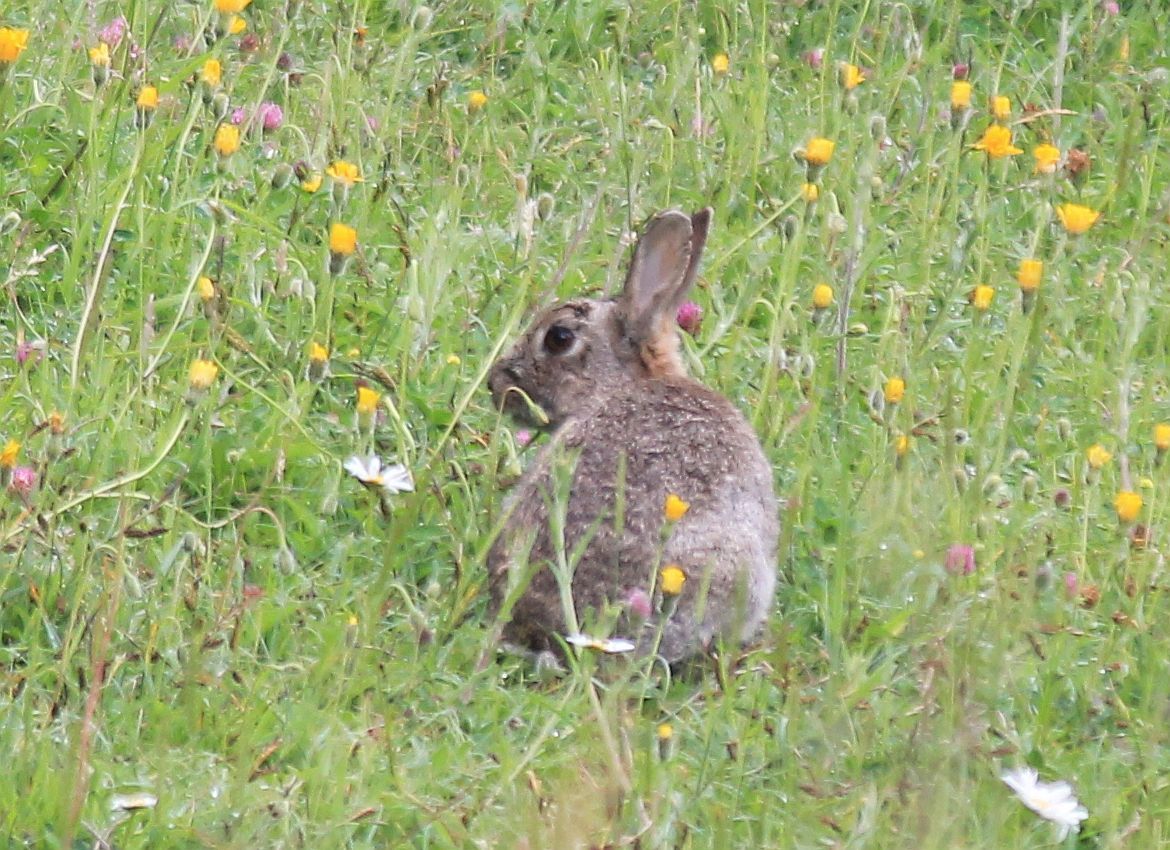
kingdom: Animalia
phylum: Chordata
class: Mammalia
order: Lagomorpha
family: Leporidae
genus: Oryctolagus
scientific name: Oryctolagus cuniculus
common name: European rabbit
